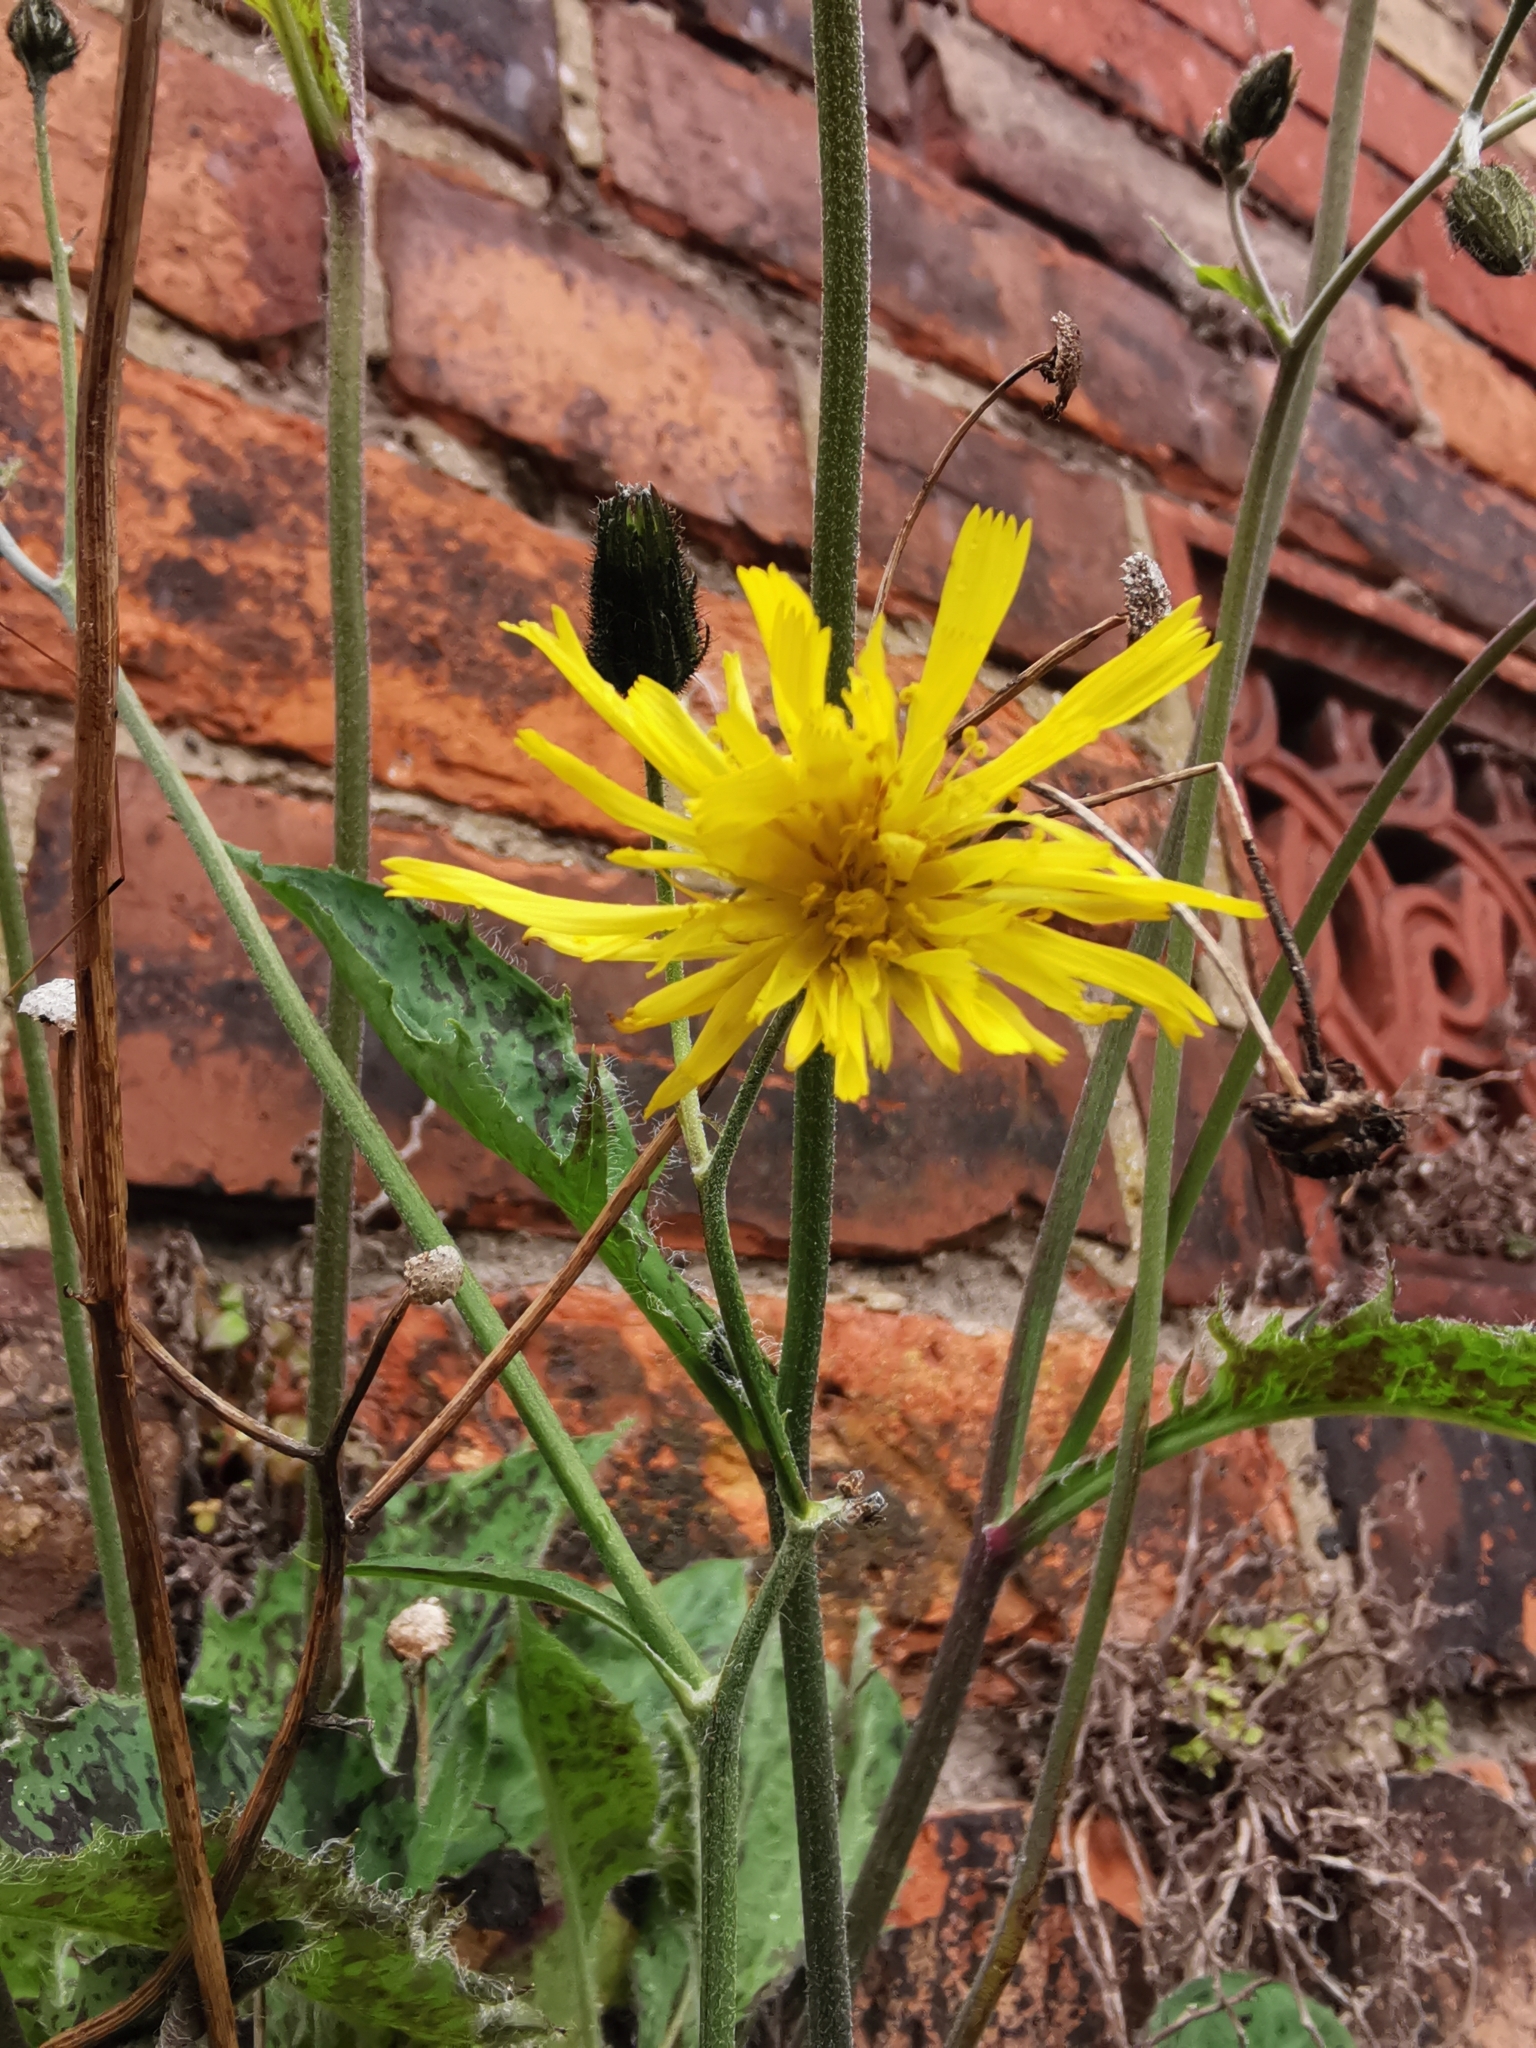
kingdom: Plantae
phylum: Tracheophyta
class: Magnoliopsida
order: Asterales
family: Asteraceae
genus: Hieracium
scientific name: Hieracium maculatum
